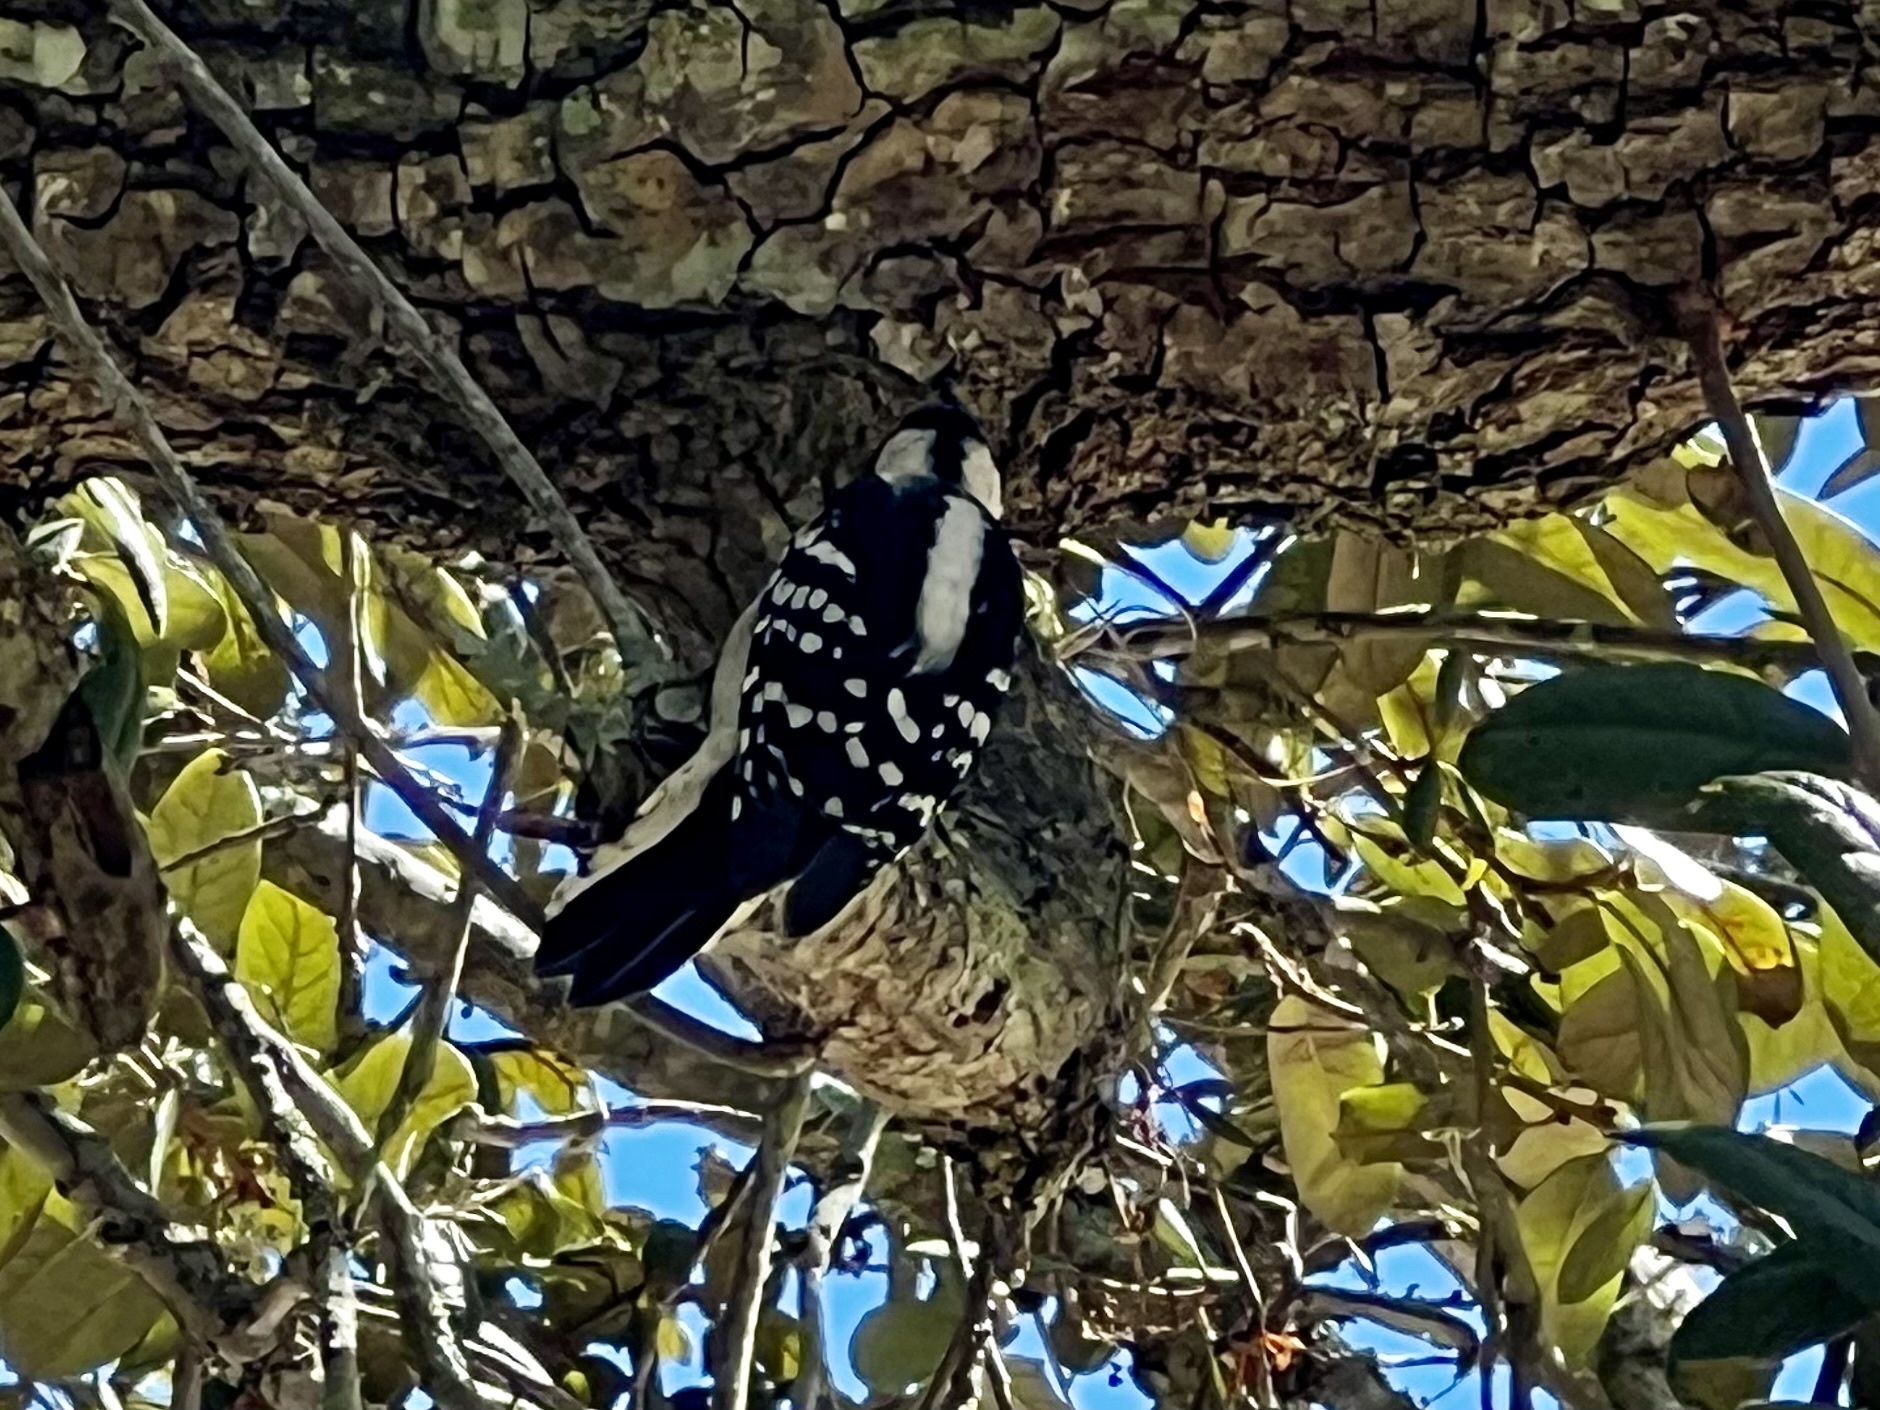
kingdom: Animalia
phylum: Chordata
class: Aves
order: Piciformes
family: Picidae
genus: Dryobates
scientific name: Dryobates pubescens
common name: Downy woodpecker
